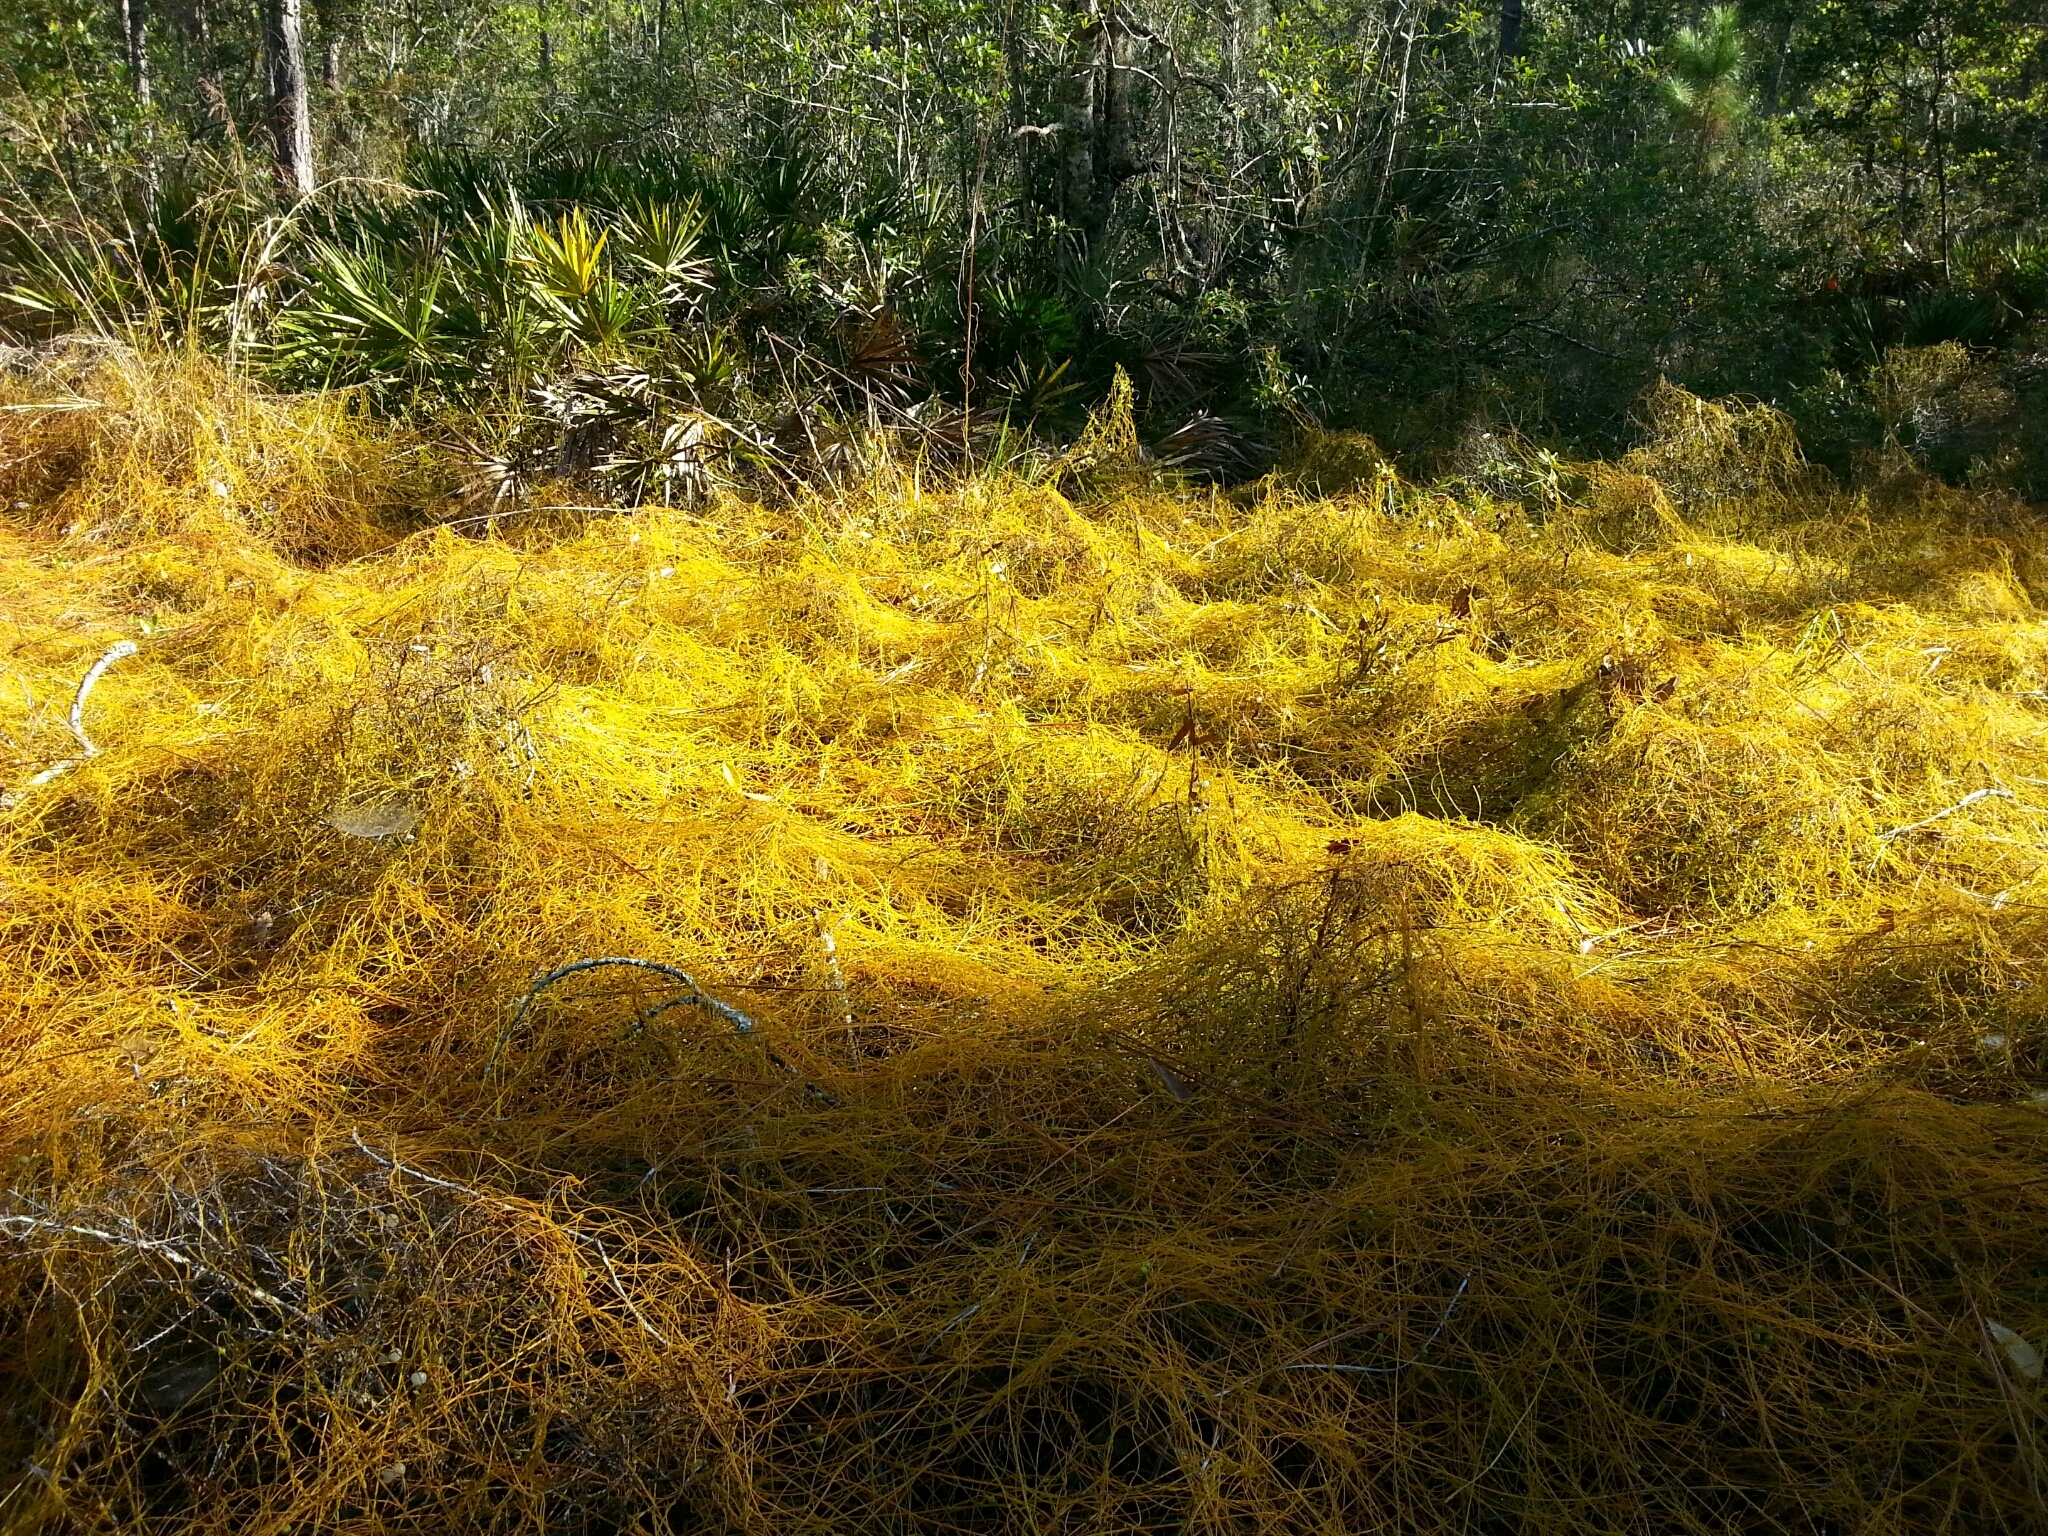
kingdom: Plantae
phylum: Tracheophyta
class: Magnoliopsida
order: Laurales
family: Lauraceae
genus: Cassytha
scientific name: Cassytha filiformis
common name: Dodder-laurel
